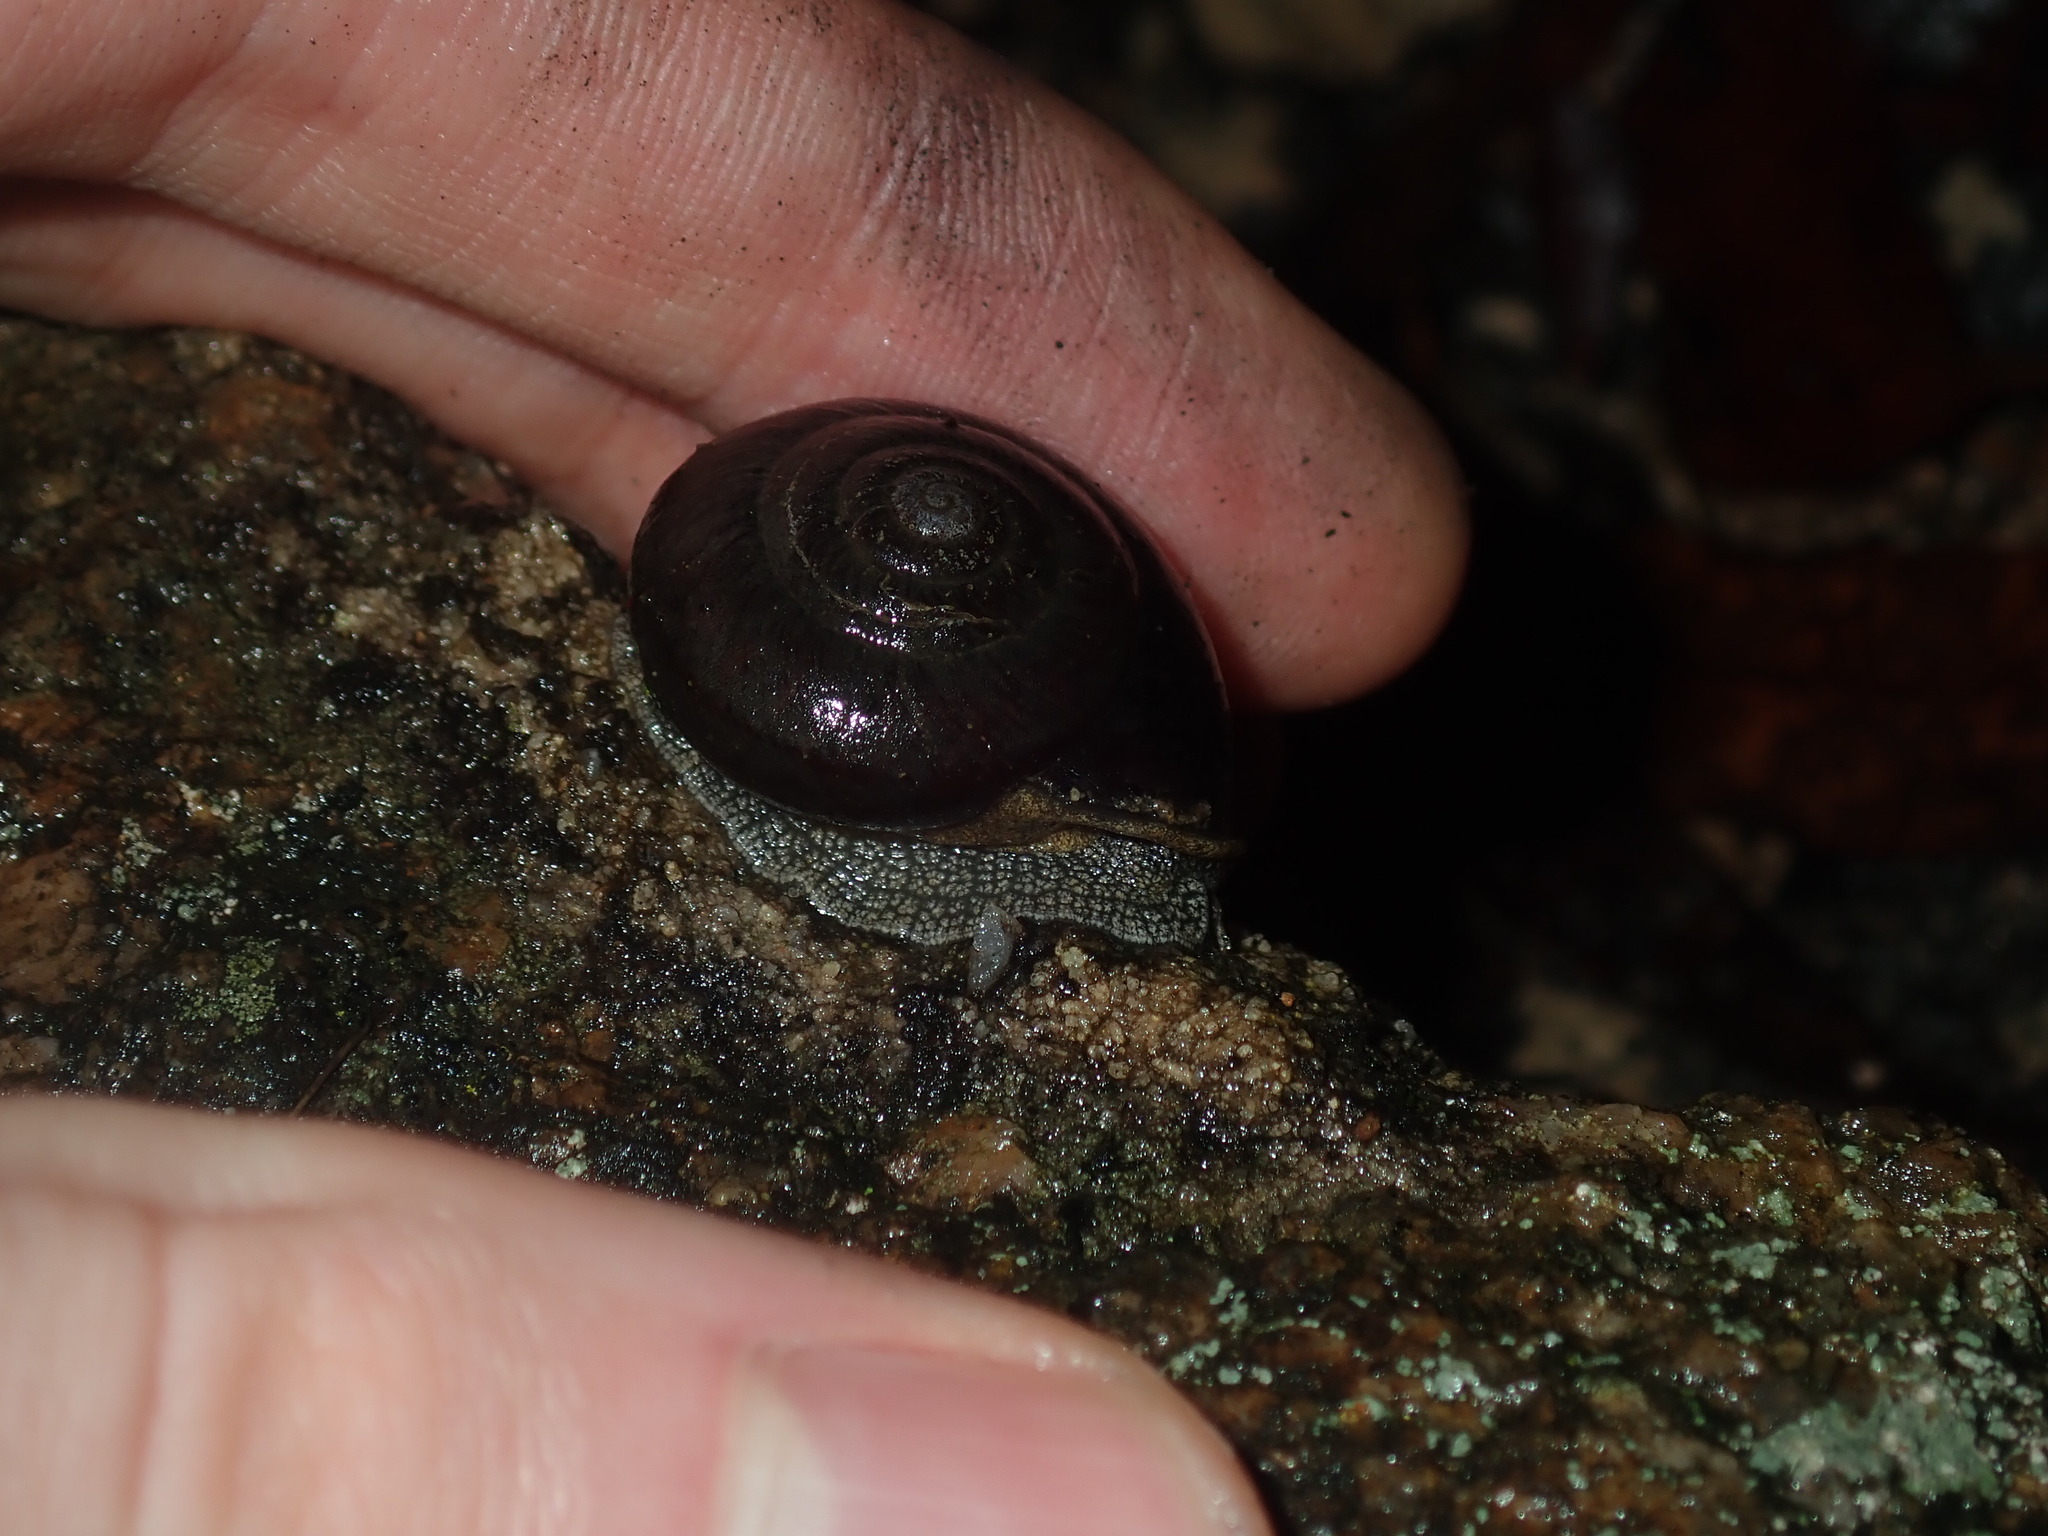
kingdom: Animalia
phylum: Mollusca
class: Gastropoda
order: Stylommatophora
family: Camaenidae
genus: Pommerhelix
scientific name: Pommerhelix monacha
